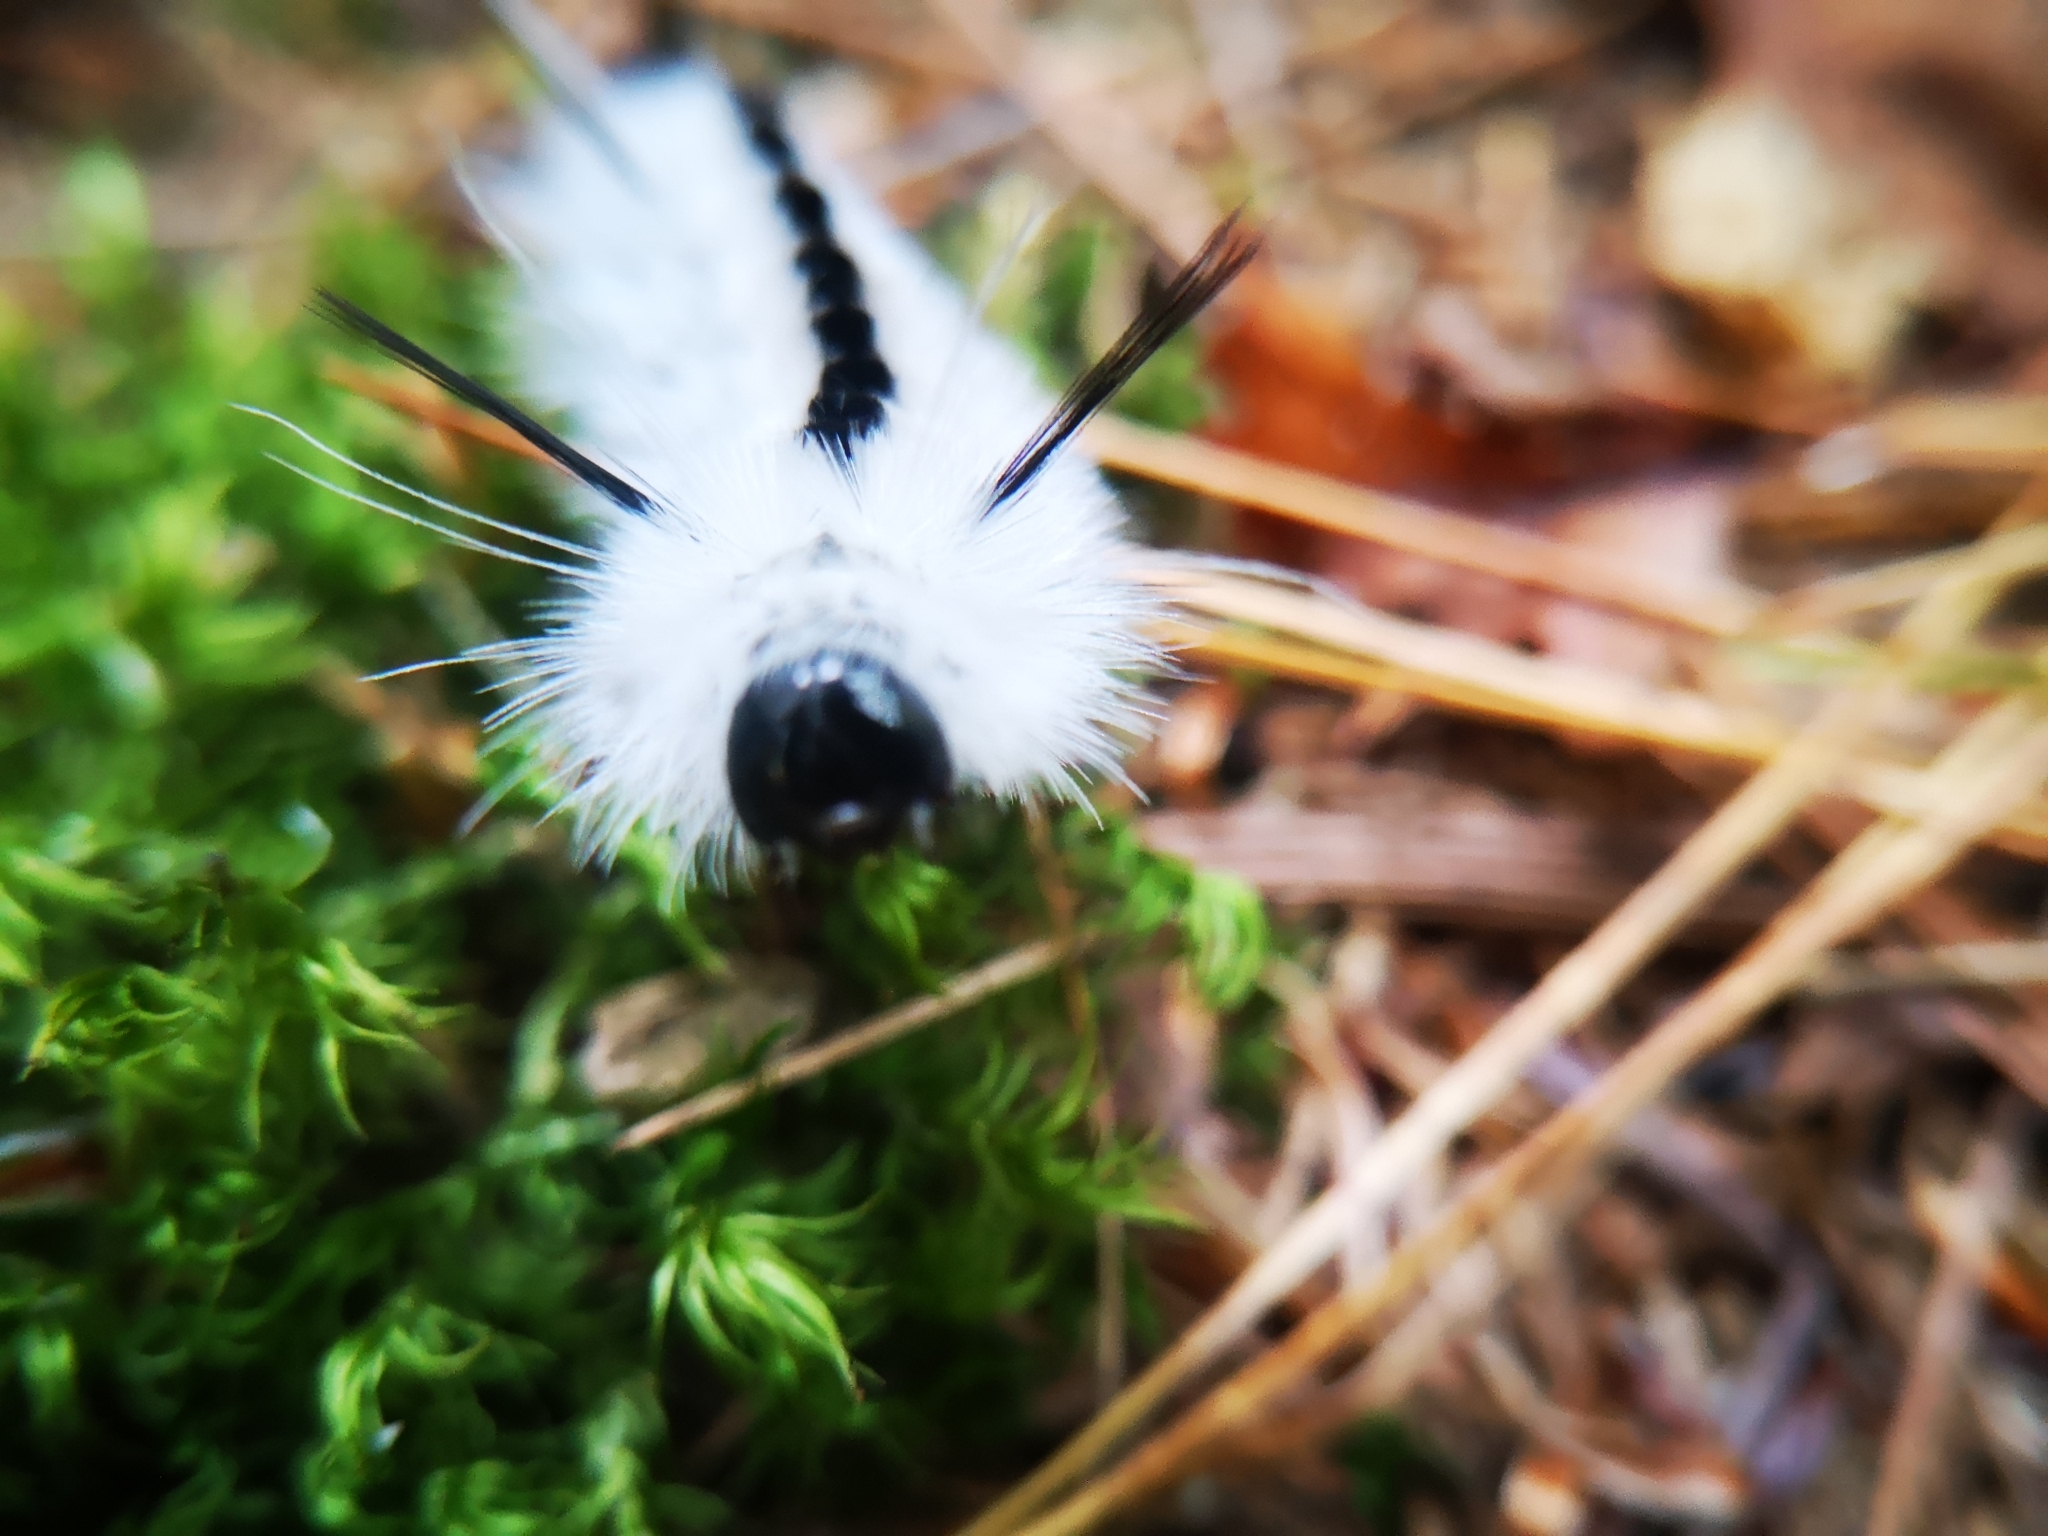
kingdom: Animalia
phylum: Arthropoda
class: Insecta
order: Lepidoptera
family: Erebidae
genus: Lophocampa
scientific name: Lophocampa caryae
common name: Hickory tussock moth
